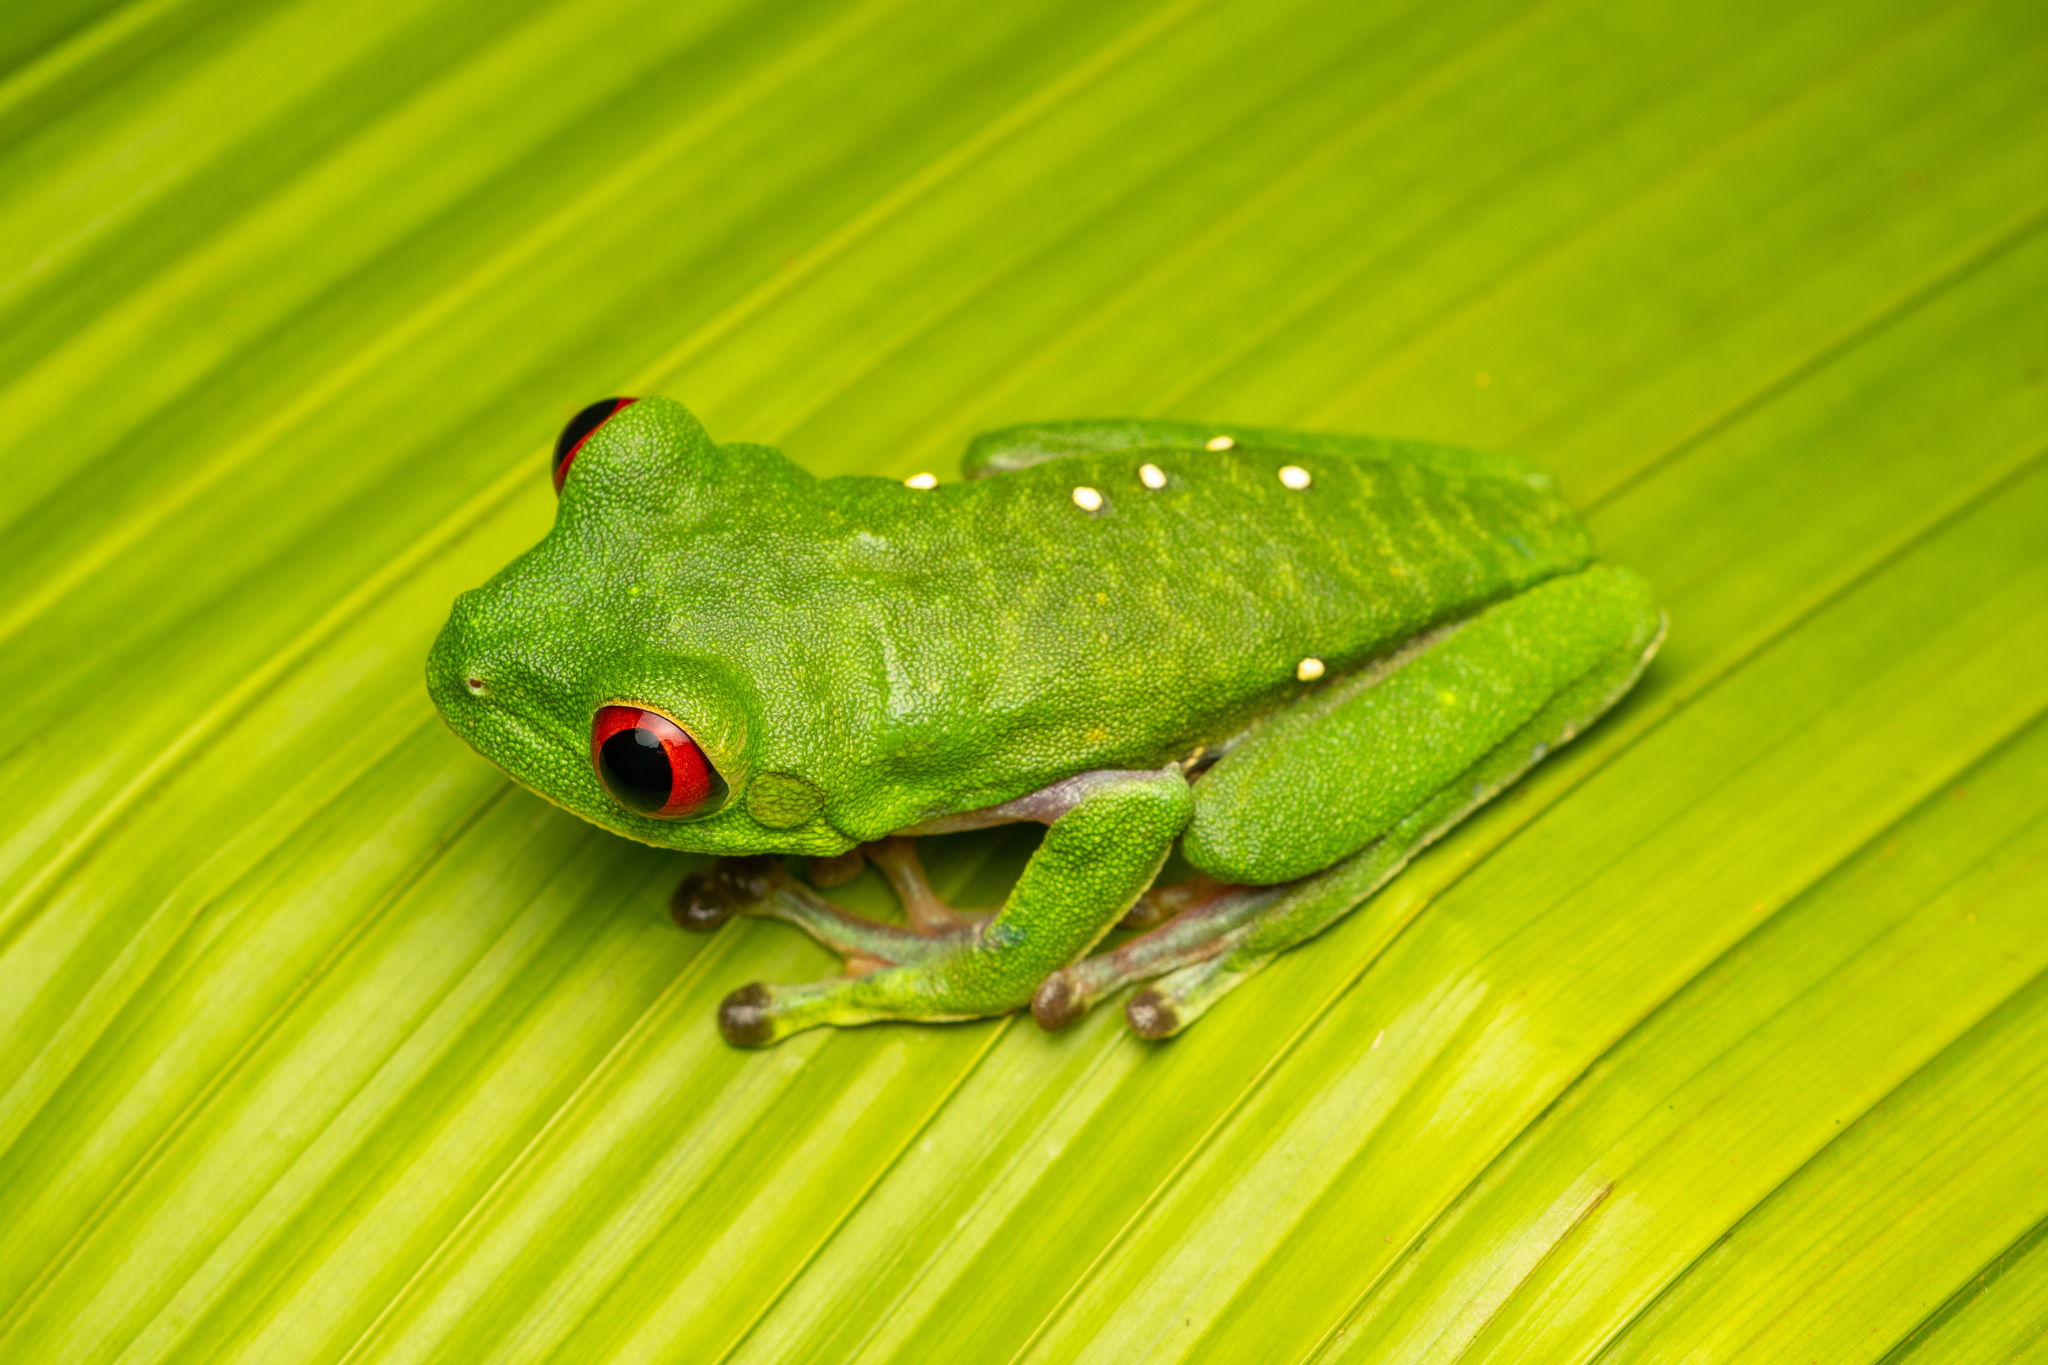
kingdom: Animalia
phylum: Chordata
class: Amphibia
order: Anura
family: Phyllomedusidae
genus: Agalychnis
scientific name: Agalychnis callidryas
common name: Red-eyed treefrog
